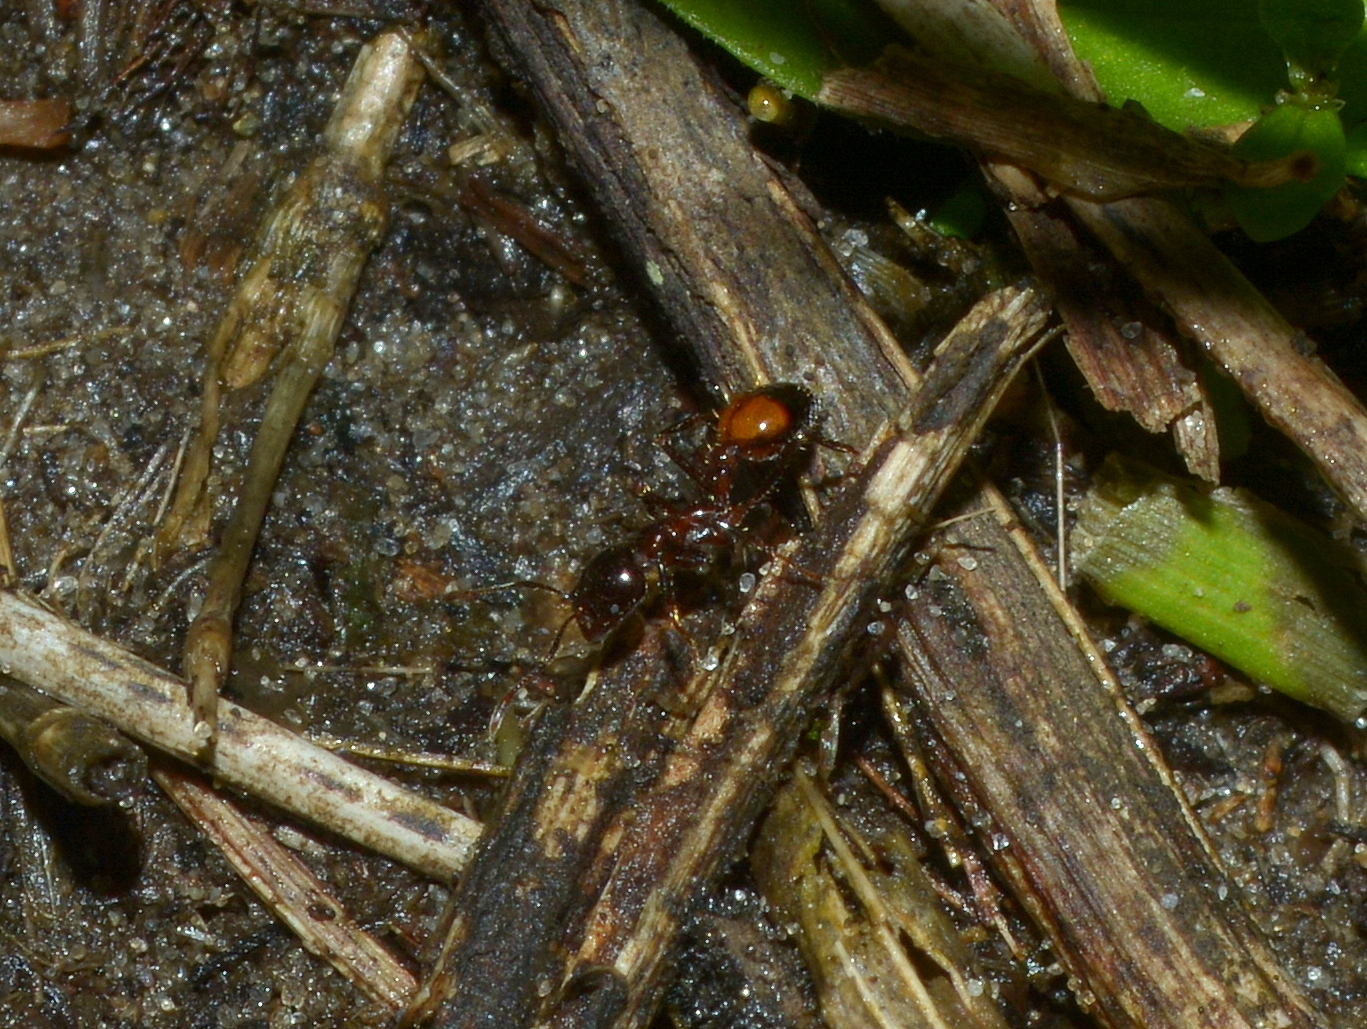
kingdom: Animalia
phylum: Arthropoda
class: Insecta
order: Hymenoptera
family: Formicidae
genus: Solenopsis
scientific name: Solenopsis richteri
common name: Black imported fire ant
